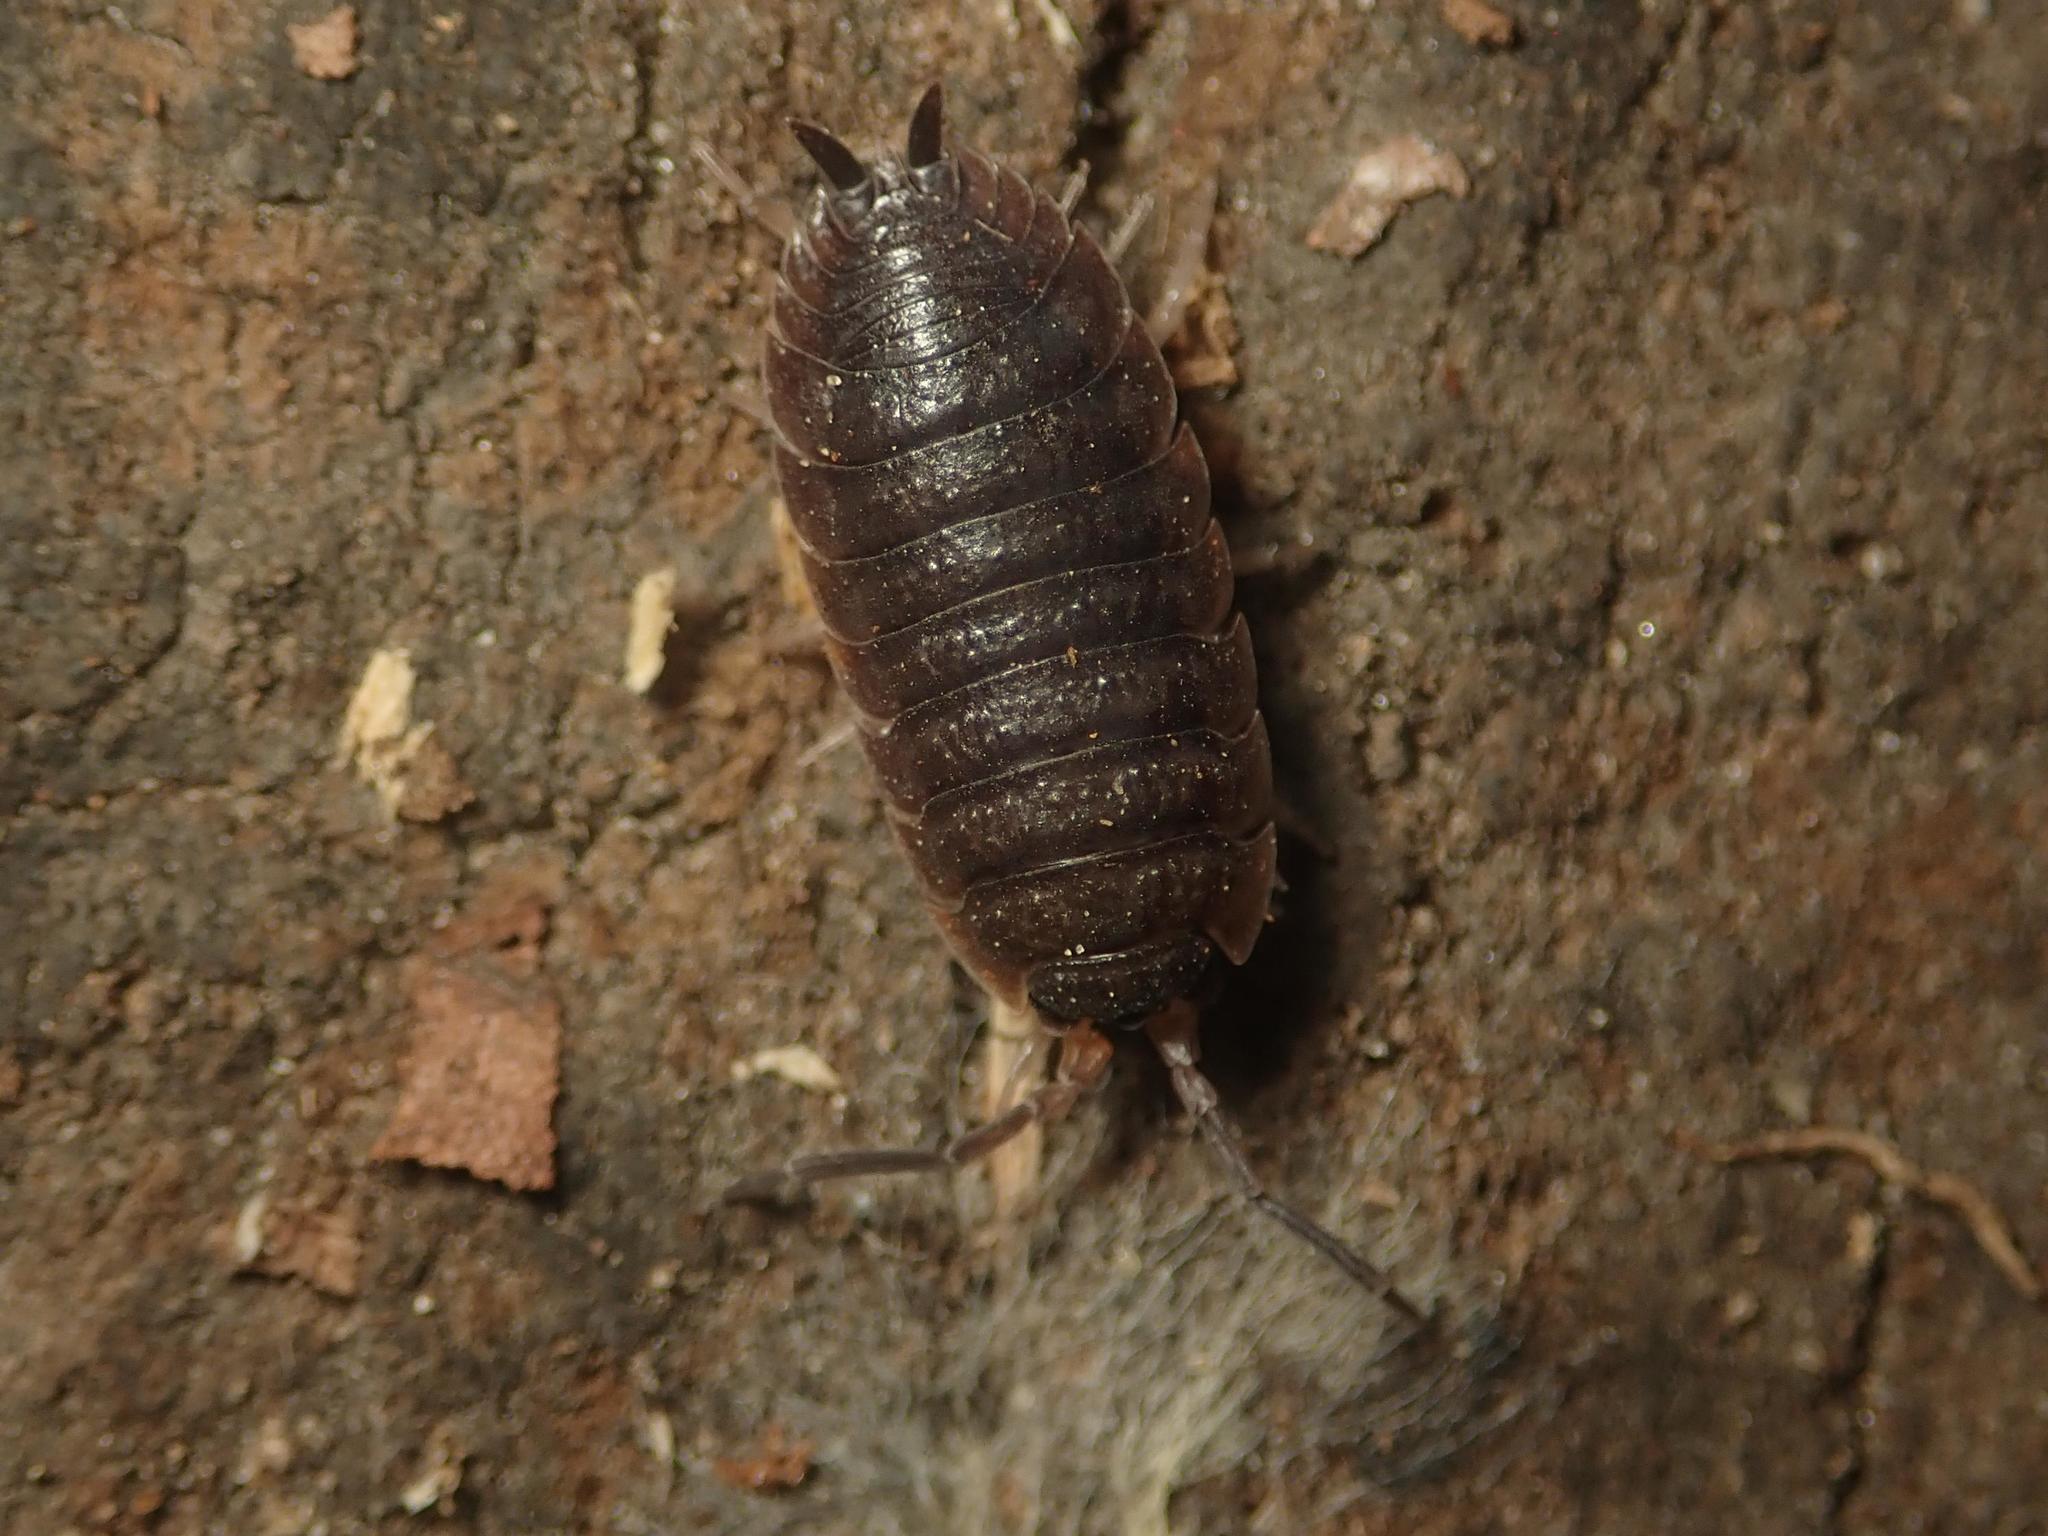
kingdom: Animalia
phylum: Arthropoda
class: Malacostraca
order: Isopoda
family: Porcellionidae
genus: Porcellio
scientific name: Porcellio scaber
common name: Common rough woodlouse
